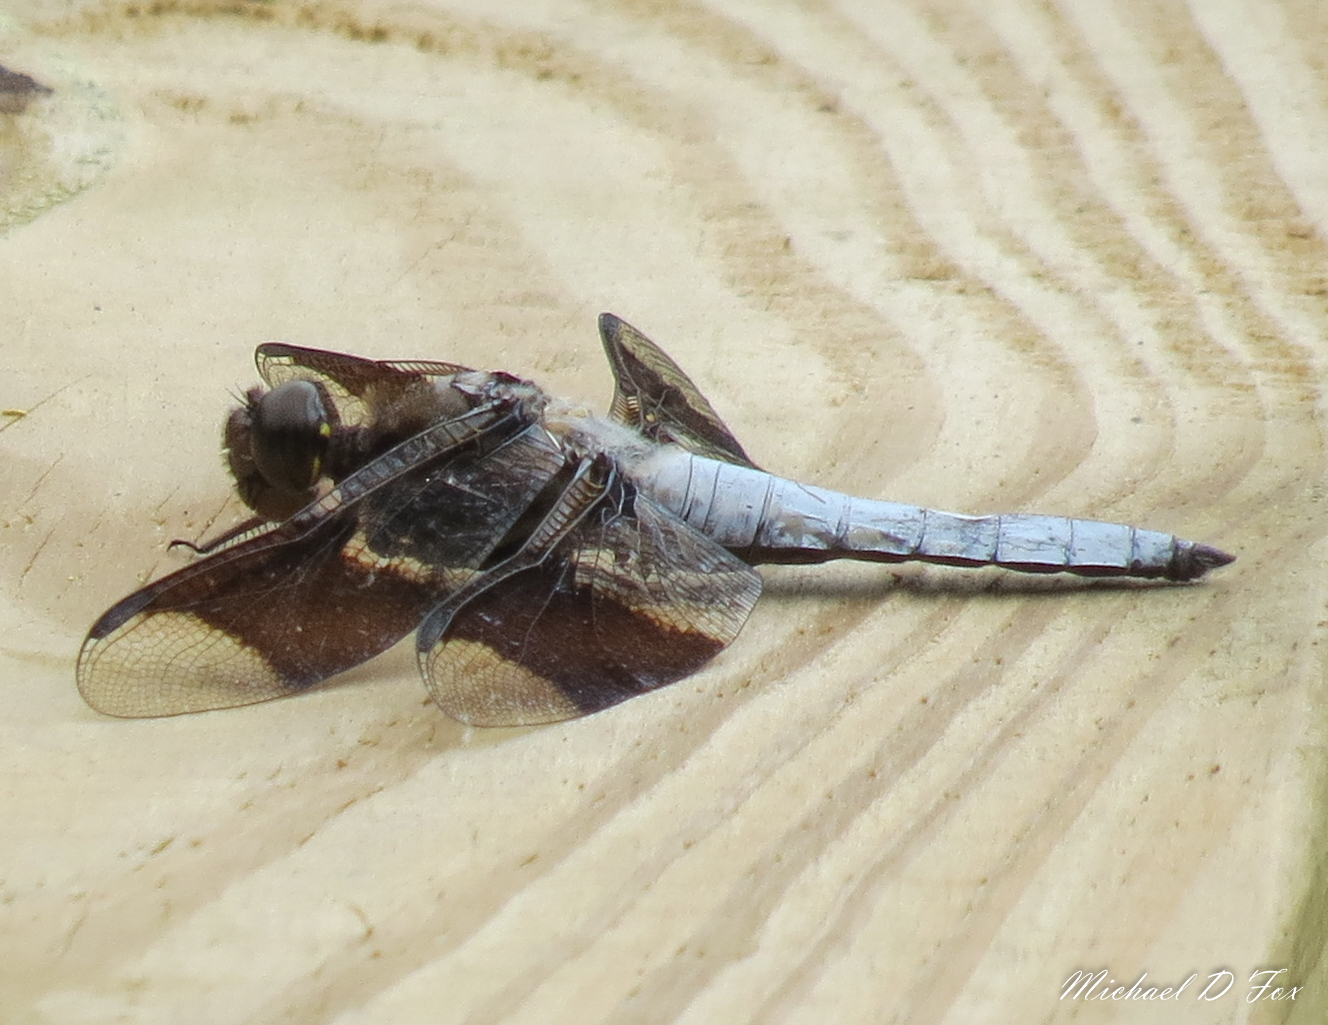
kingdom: Animalia
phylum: Arthropoda
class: Insecta
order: Odonata
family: Libellulidae
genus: Plathemis
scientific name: Plathemis lydia
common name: Common whitetail
